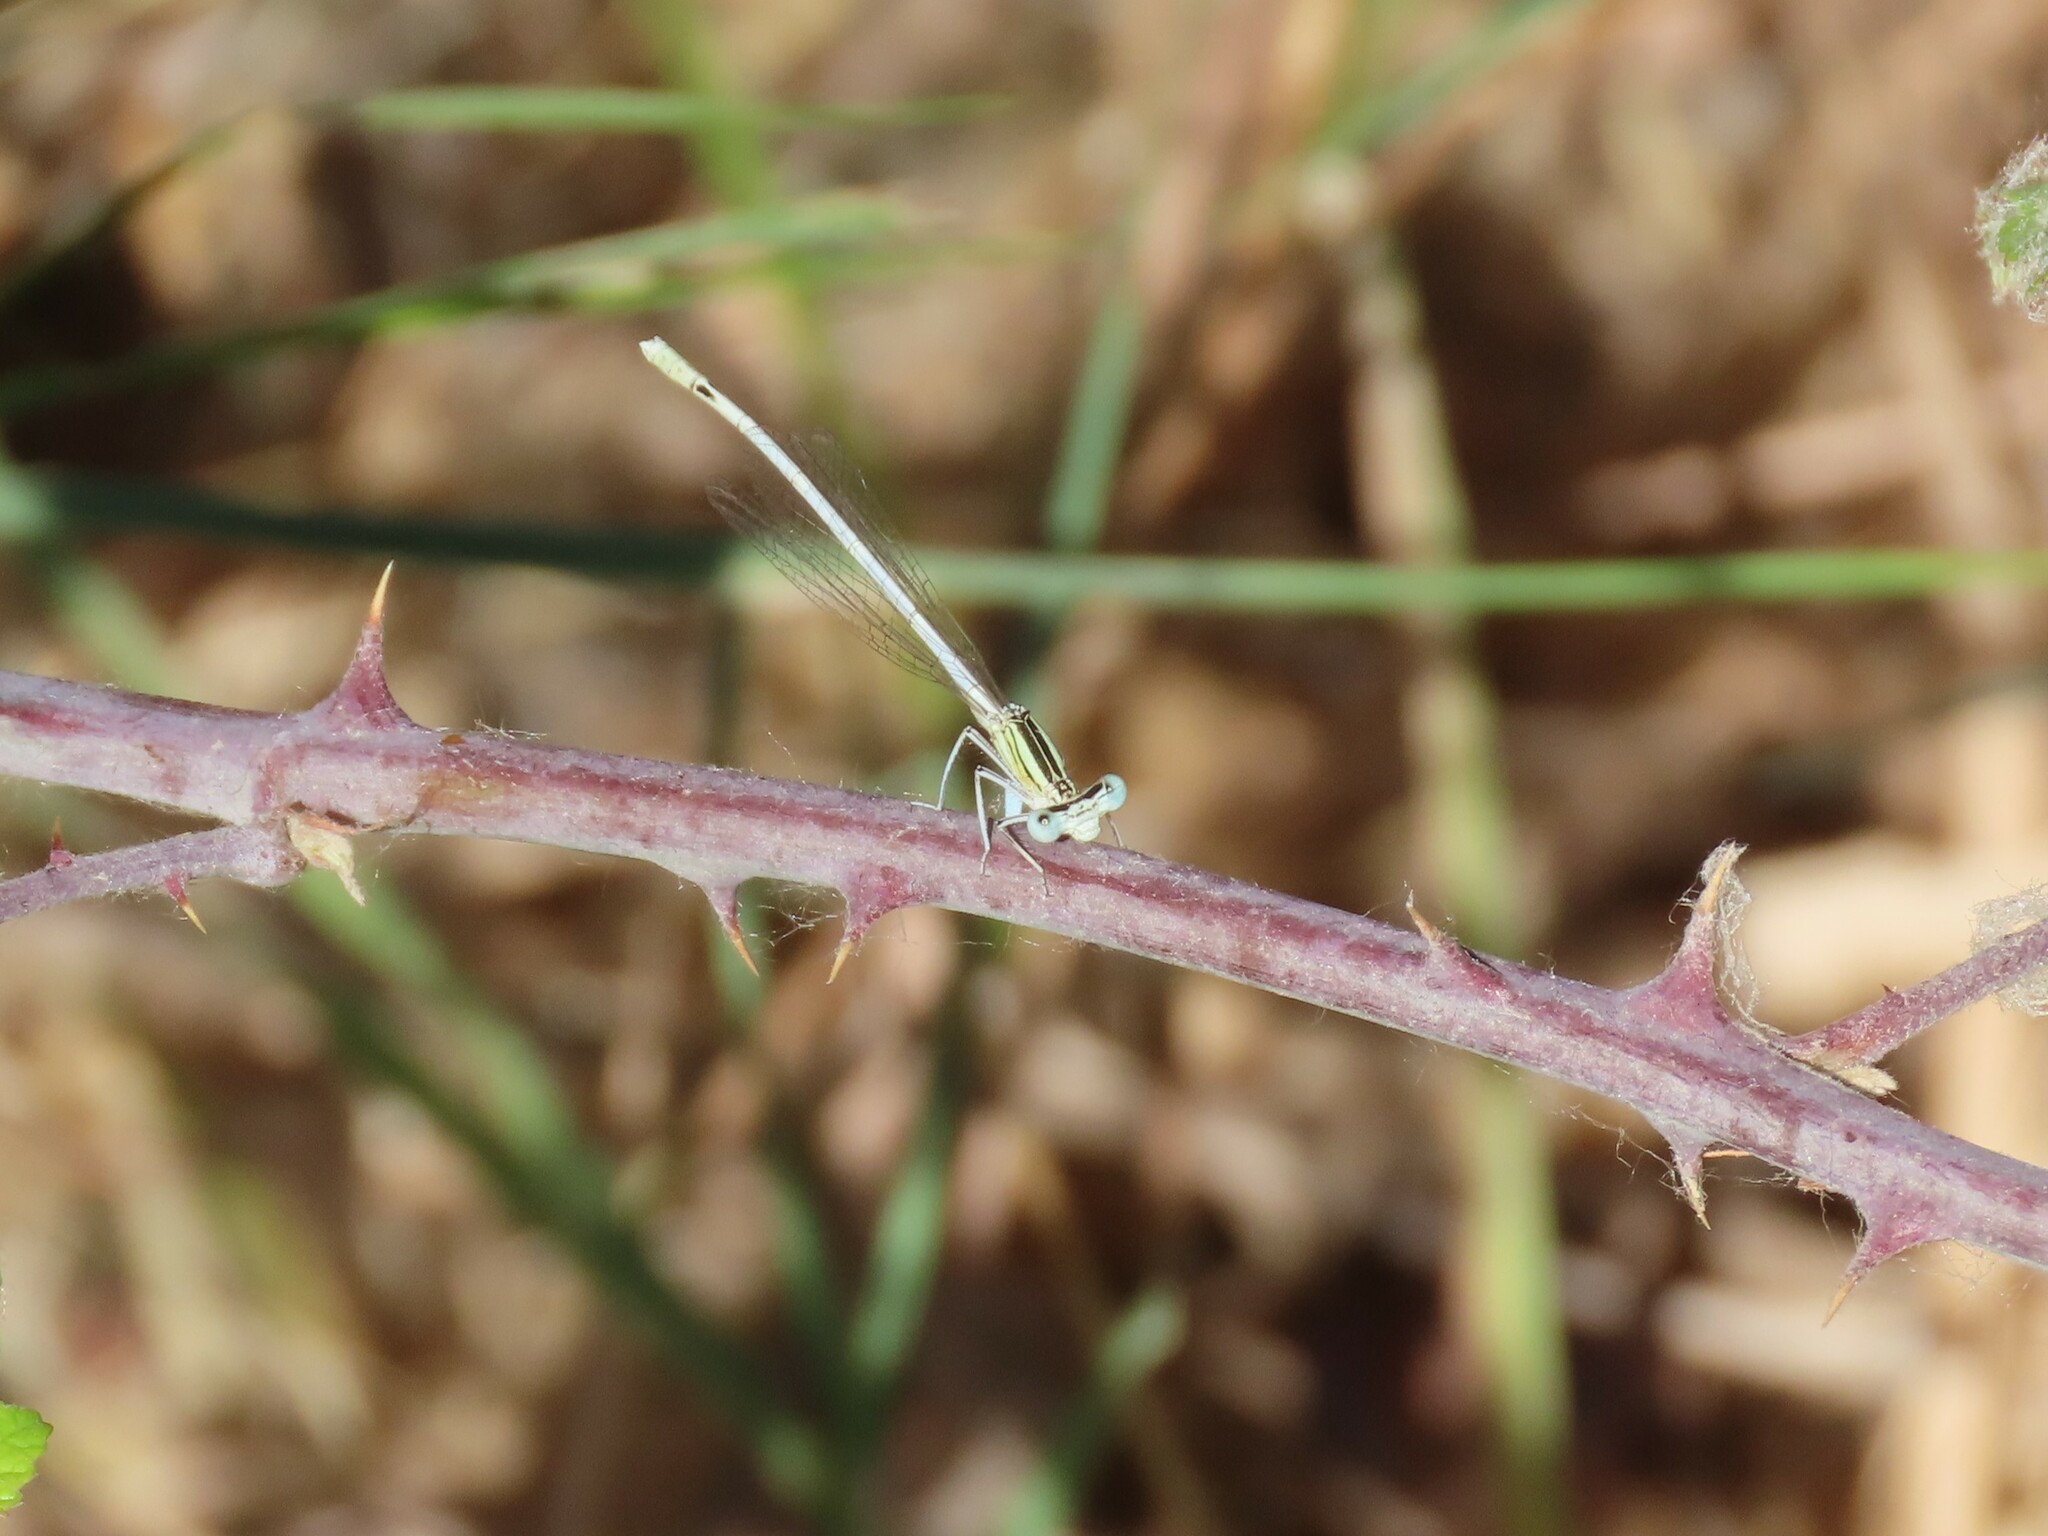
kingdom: Animalia
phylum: Arthropoda
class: Insecta
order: Odonata
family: Platycnemididae
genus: Platycnemis
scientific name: Platycnemis latipes
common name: White featherleg
